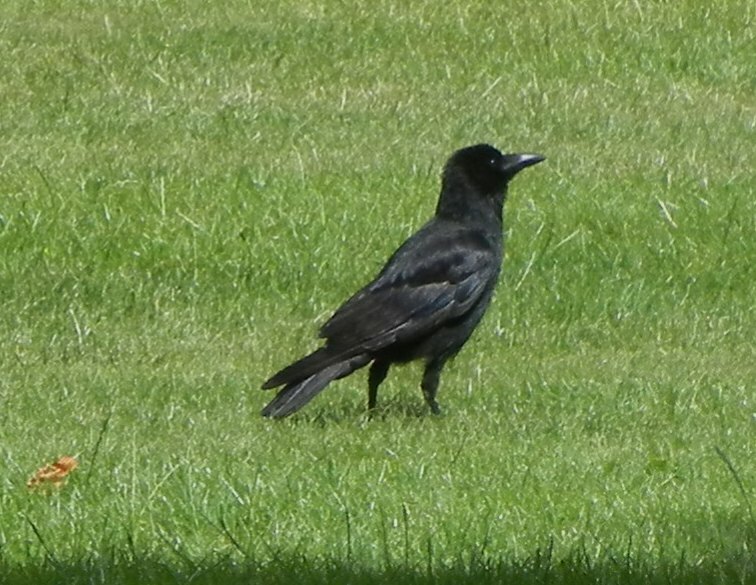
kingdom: Animalia
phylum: Chordata
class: Aves
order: Passeriformes
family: Corvidae
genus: Corvus
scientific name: Corvus corone
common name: Carrion crow
